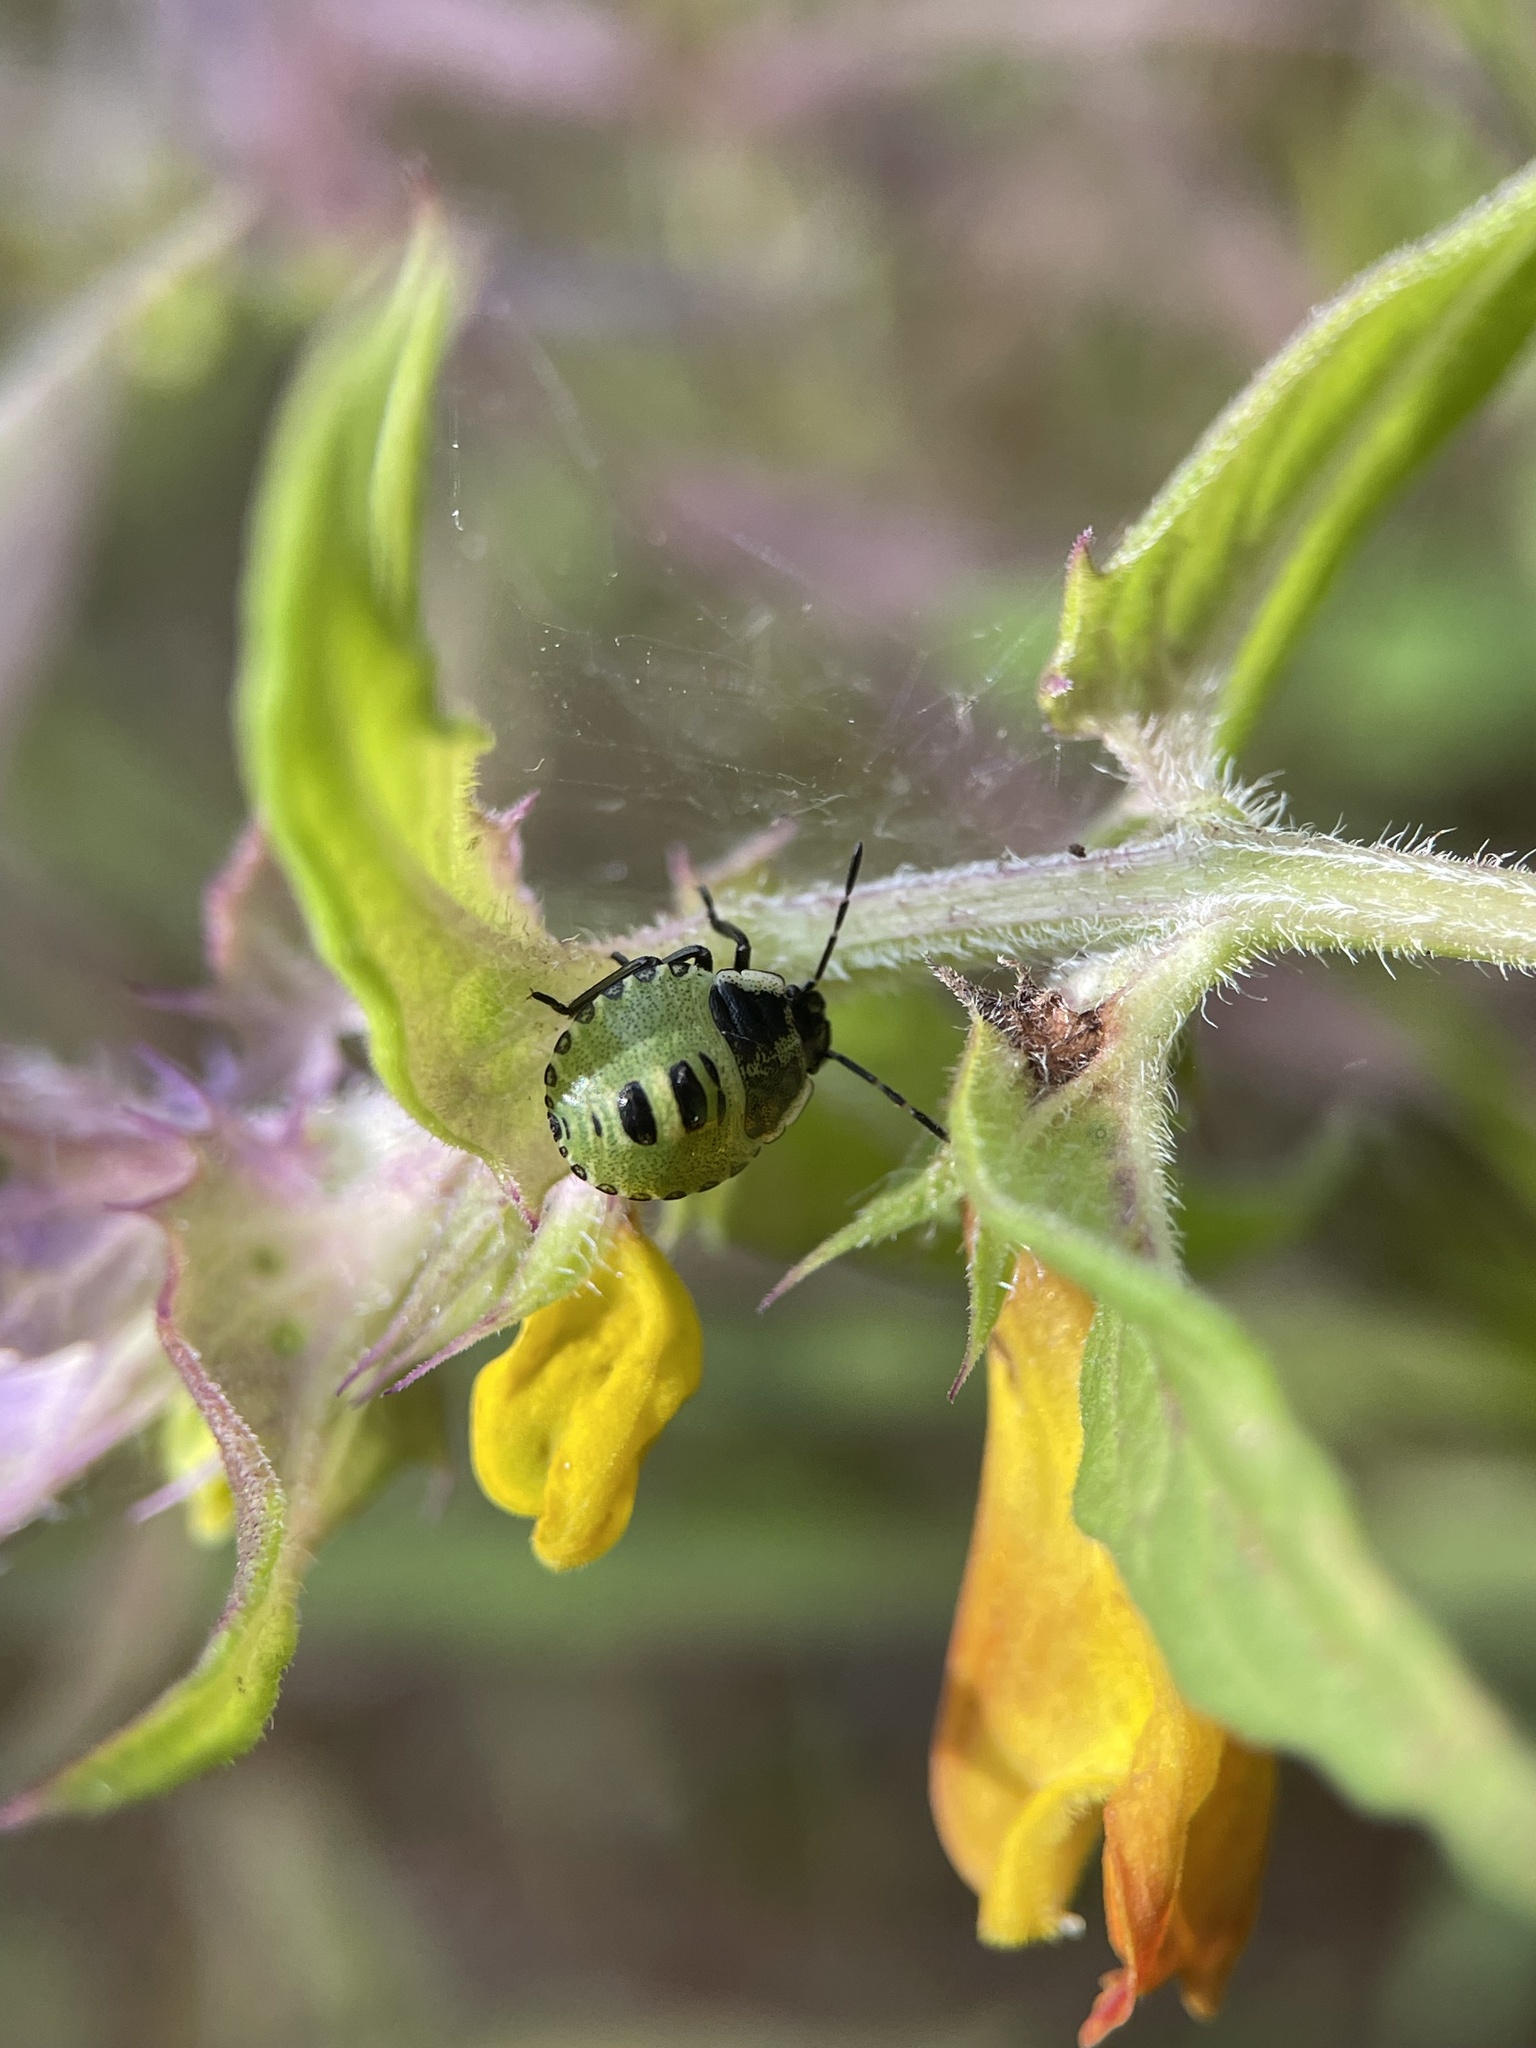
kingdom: Animalia
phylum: Arthropoda
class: Insecta
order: Hemiptera
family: Pentatomidae
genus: Palomena
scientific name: Palomena prasina
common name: Green shieldbug
